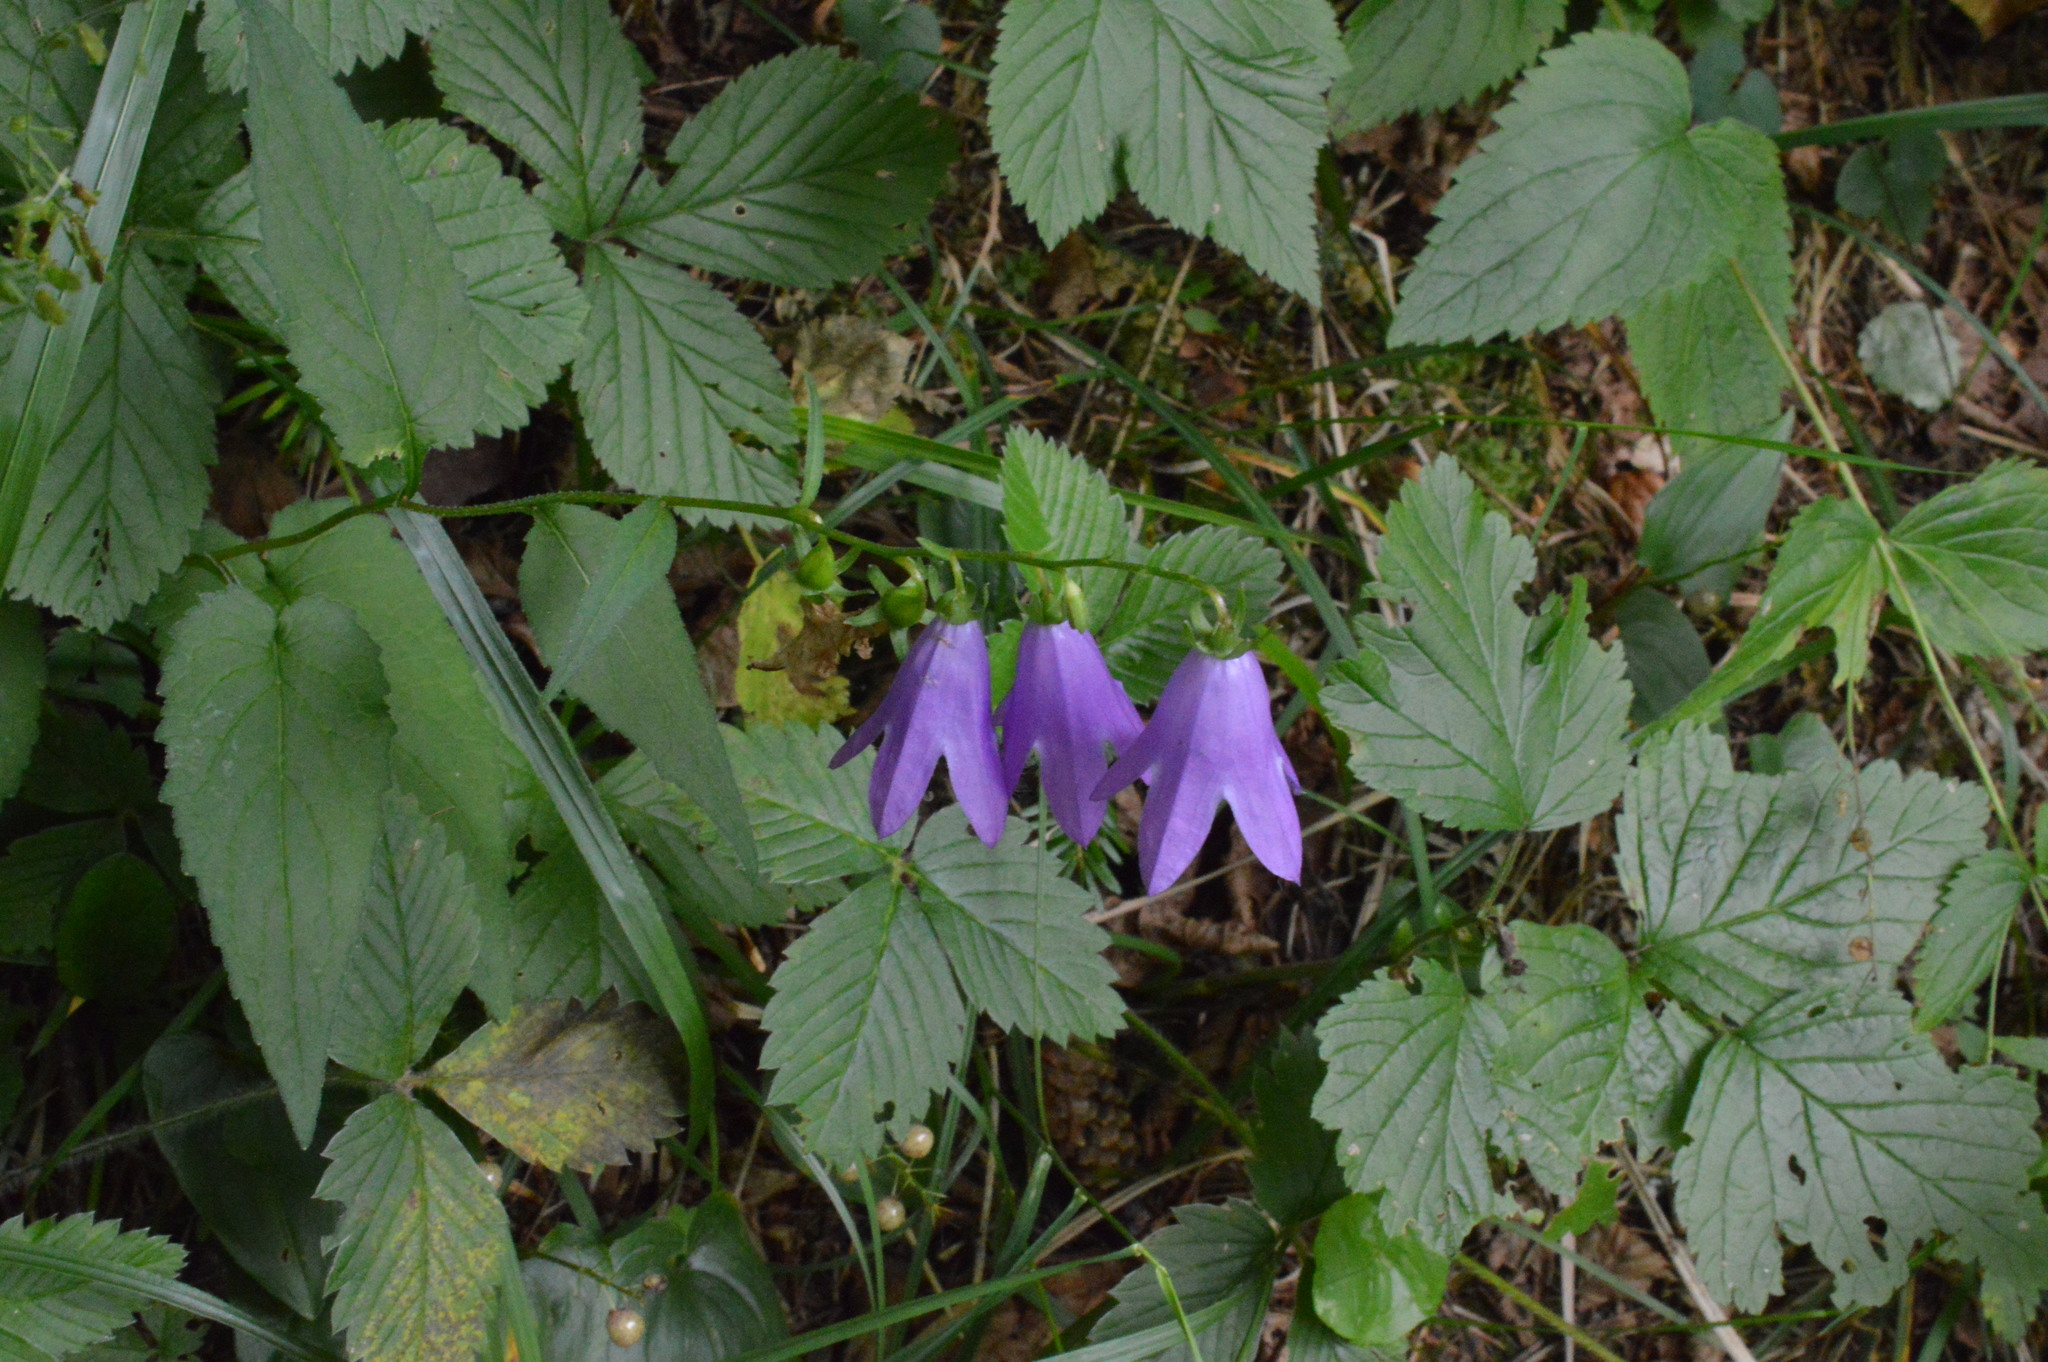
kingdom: Plantae
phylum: Tracheophyta
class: Magnoliopsida
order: Asterales
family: Campanulaceae
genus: Campanula
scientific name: Campanula rapunculoides
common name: Creeping bellflower
